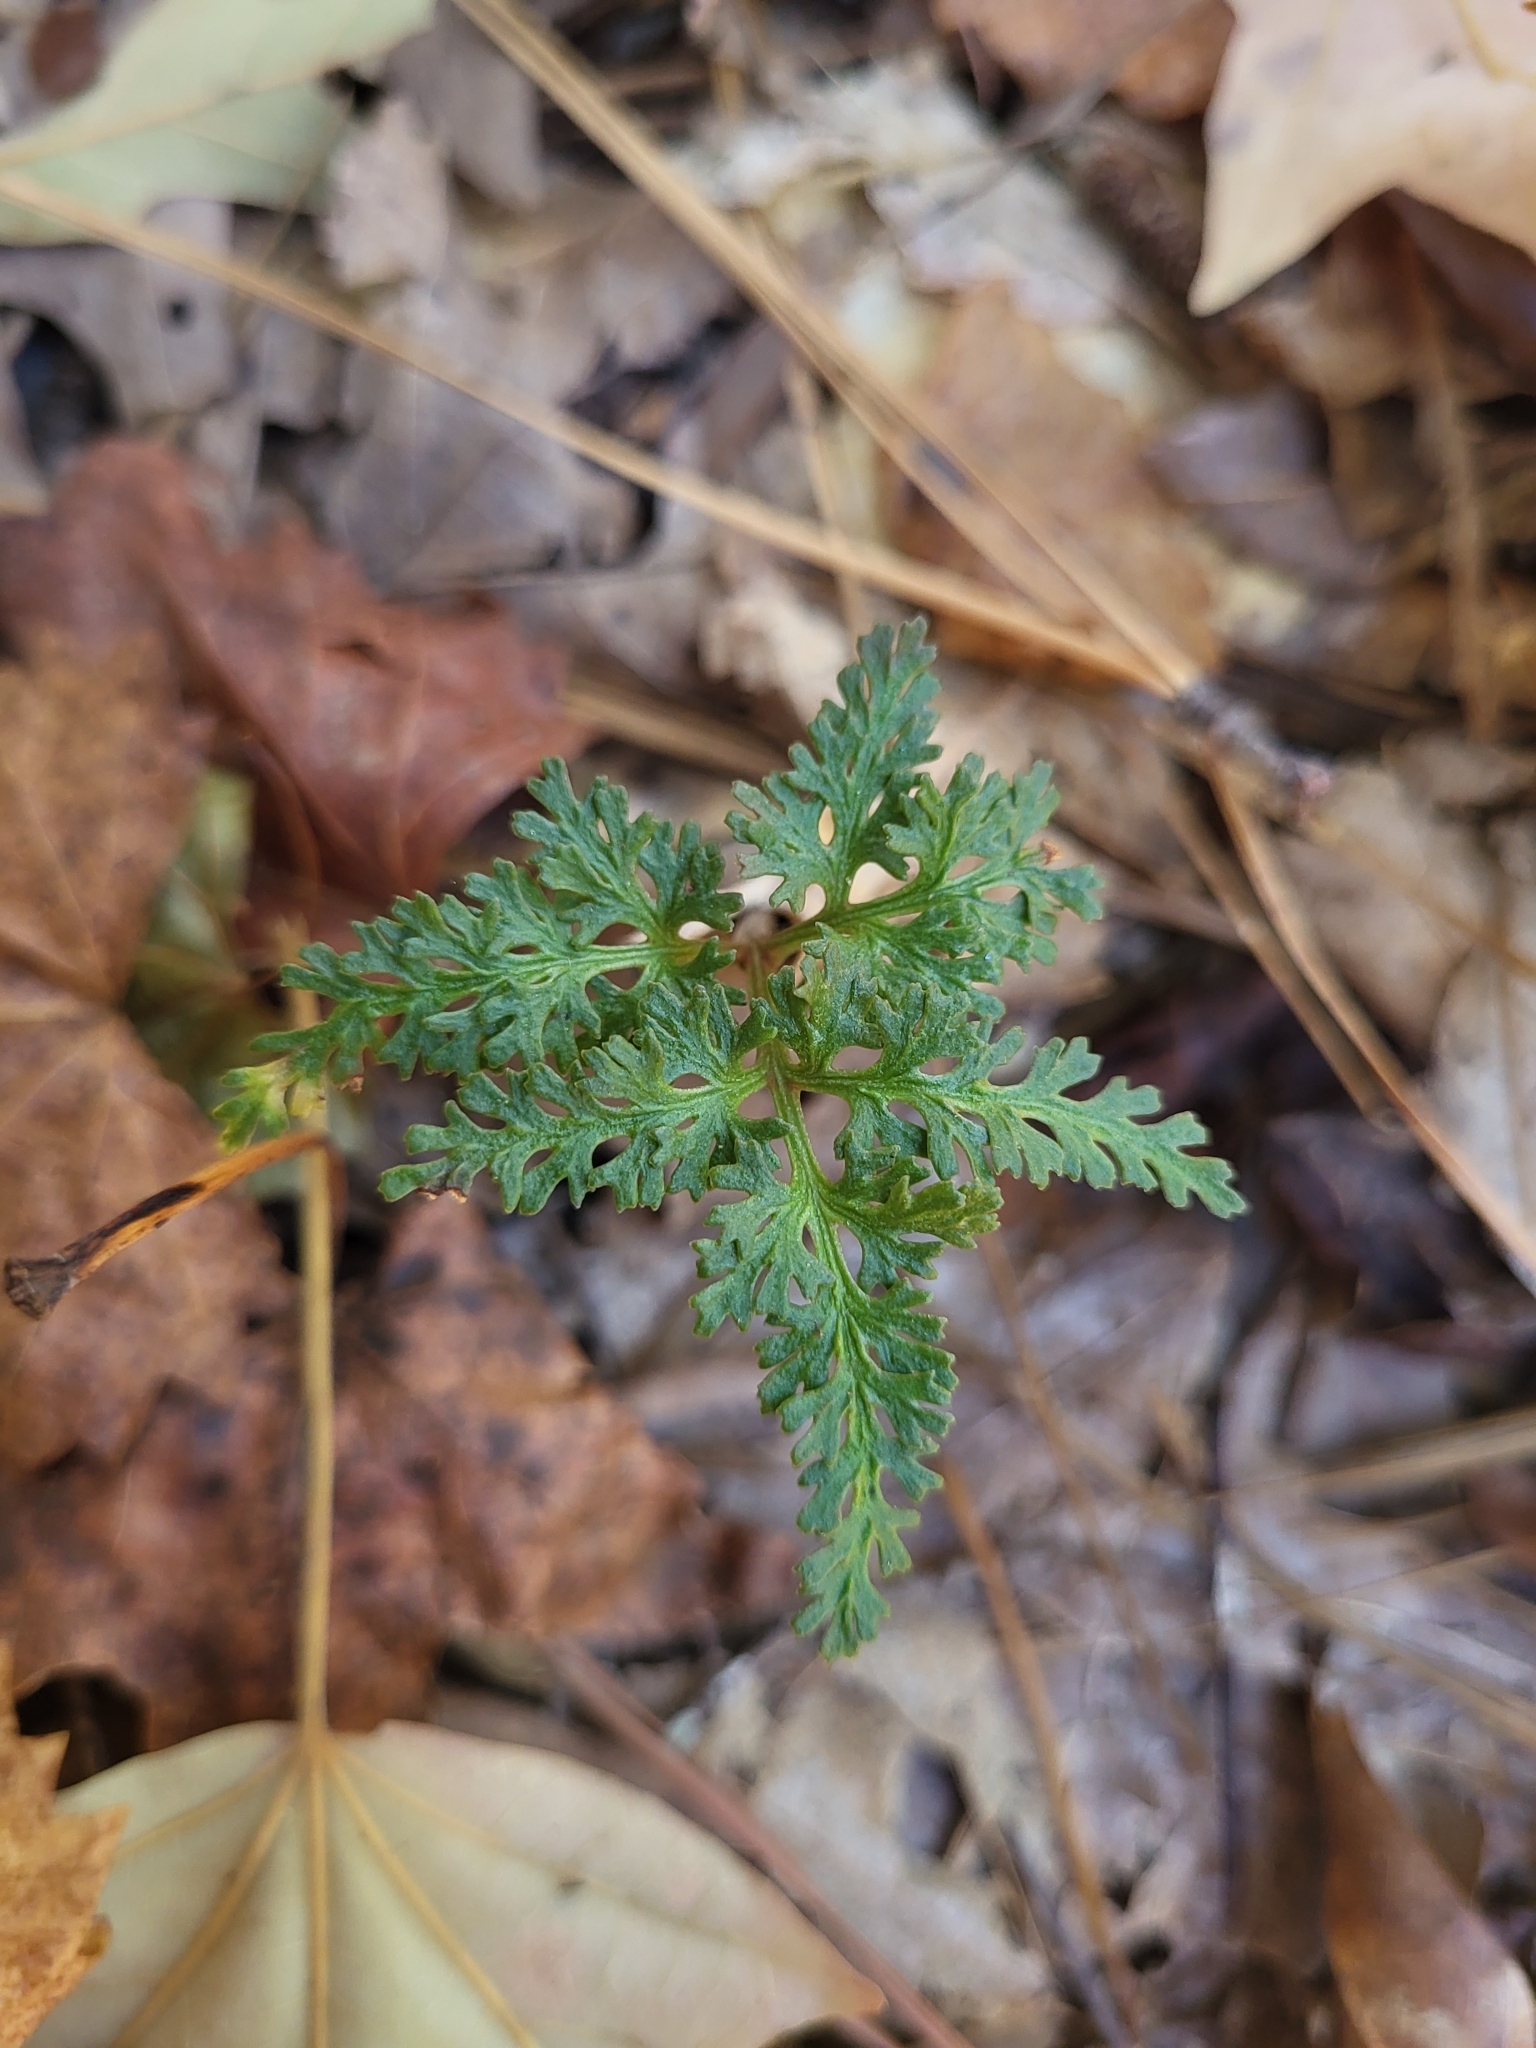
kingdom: Plantae
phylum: Tracheophyta
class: Polypodiopsida
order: Ophioglossales
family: Ophioglossaceae
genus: Sceptridium
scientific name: Sceptridium dissectum
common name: Cut-leaved grapefern
